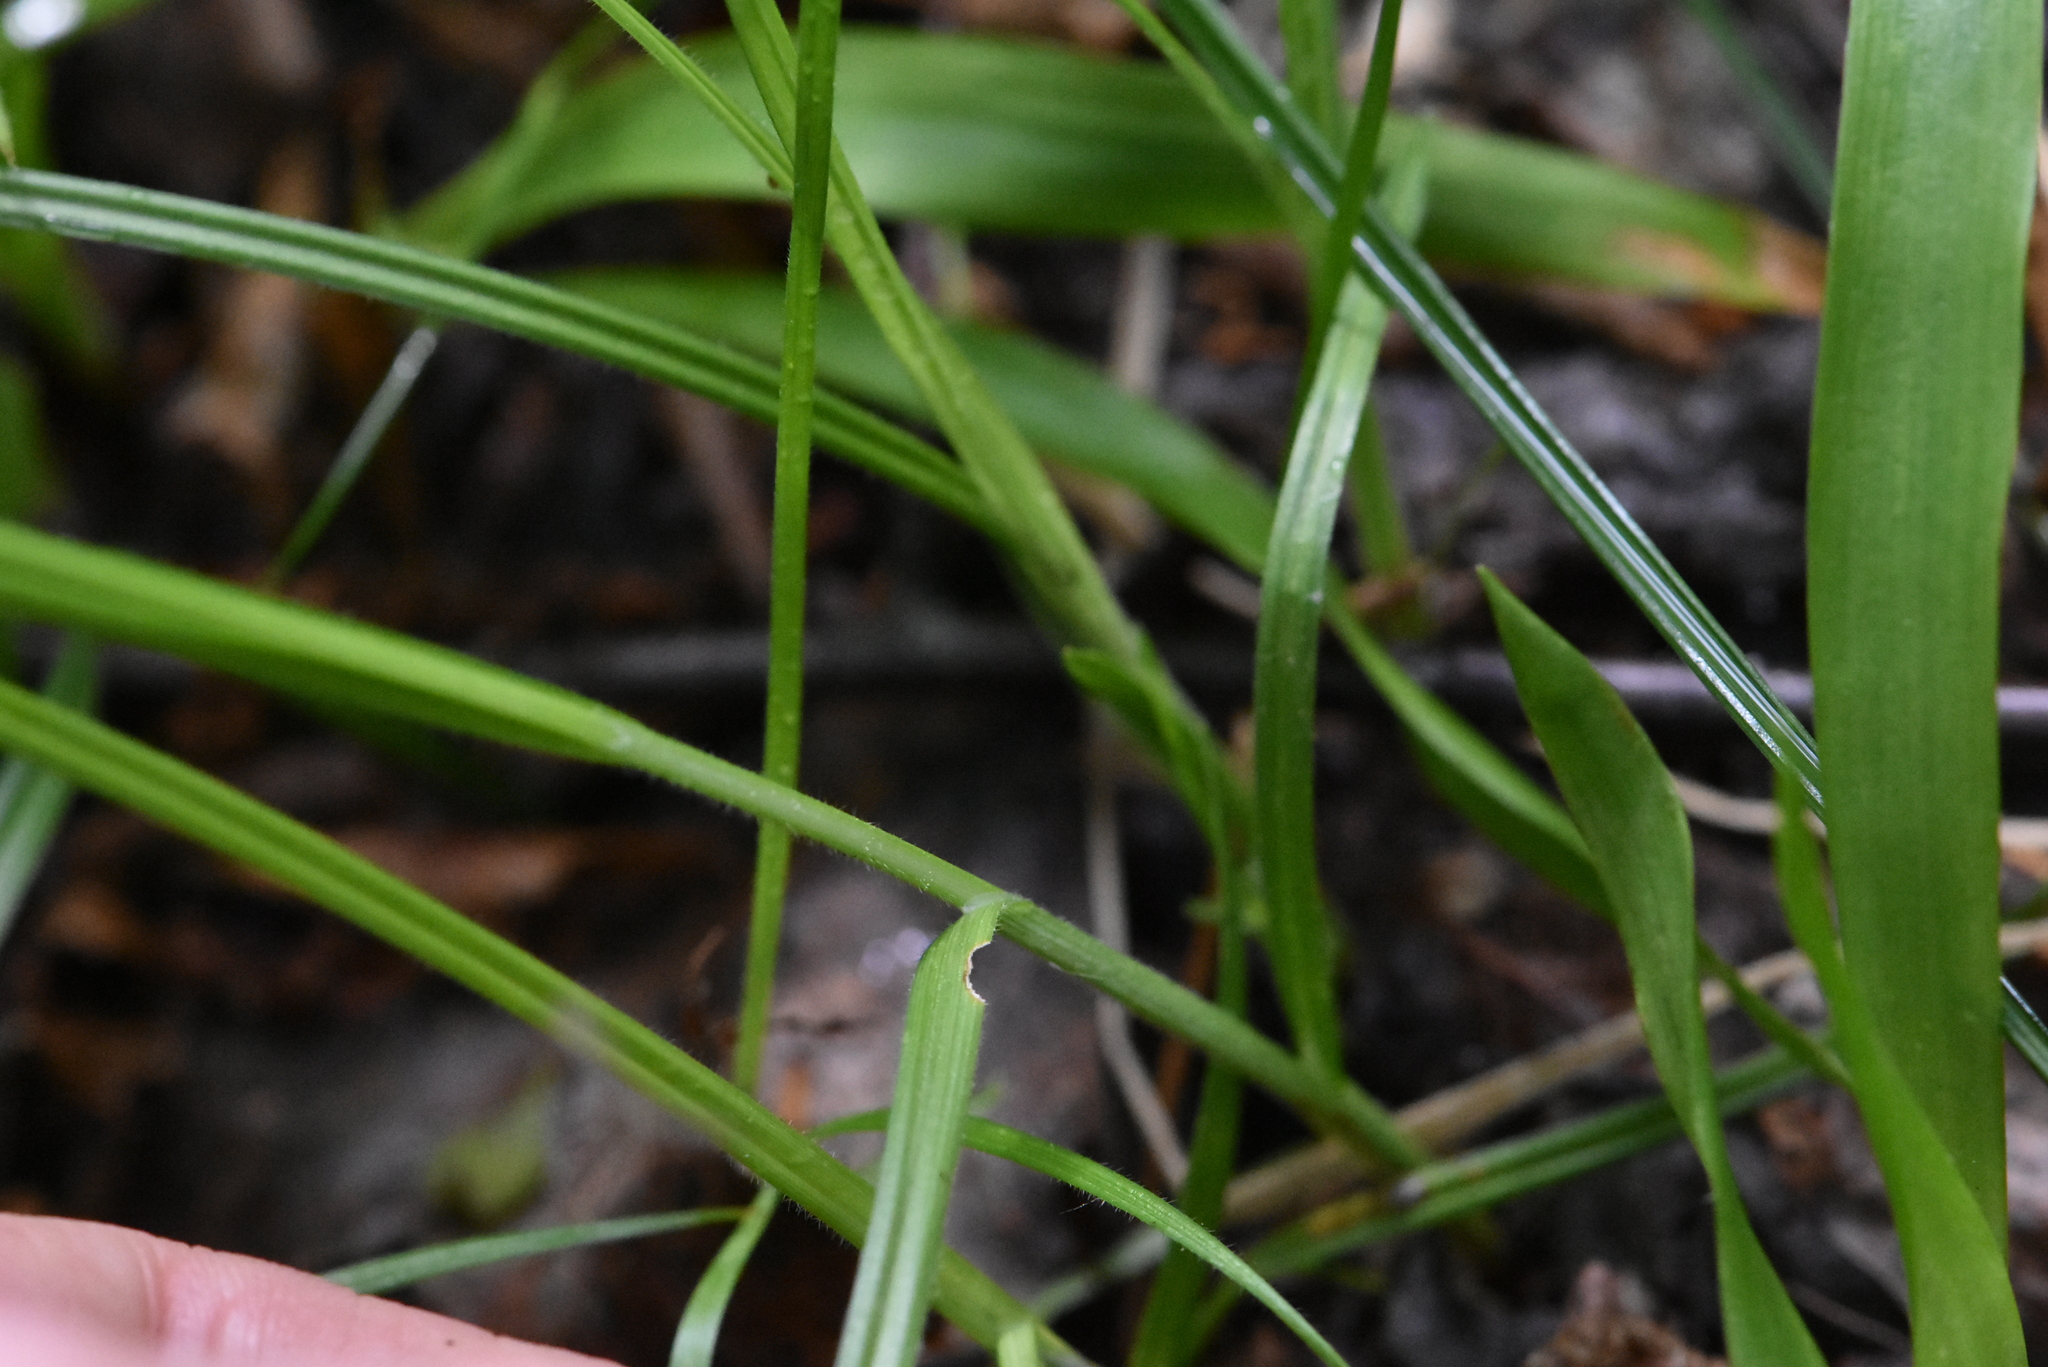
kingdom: Plantae
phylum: Tracheophyta
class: Liliopsida
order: Poales
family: Cyperaceae
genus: Carex
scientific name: Carex pallescens
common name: Pale sedge
